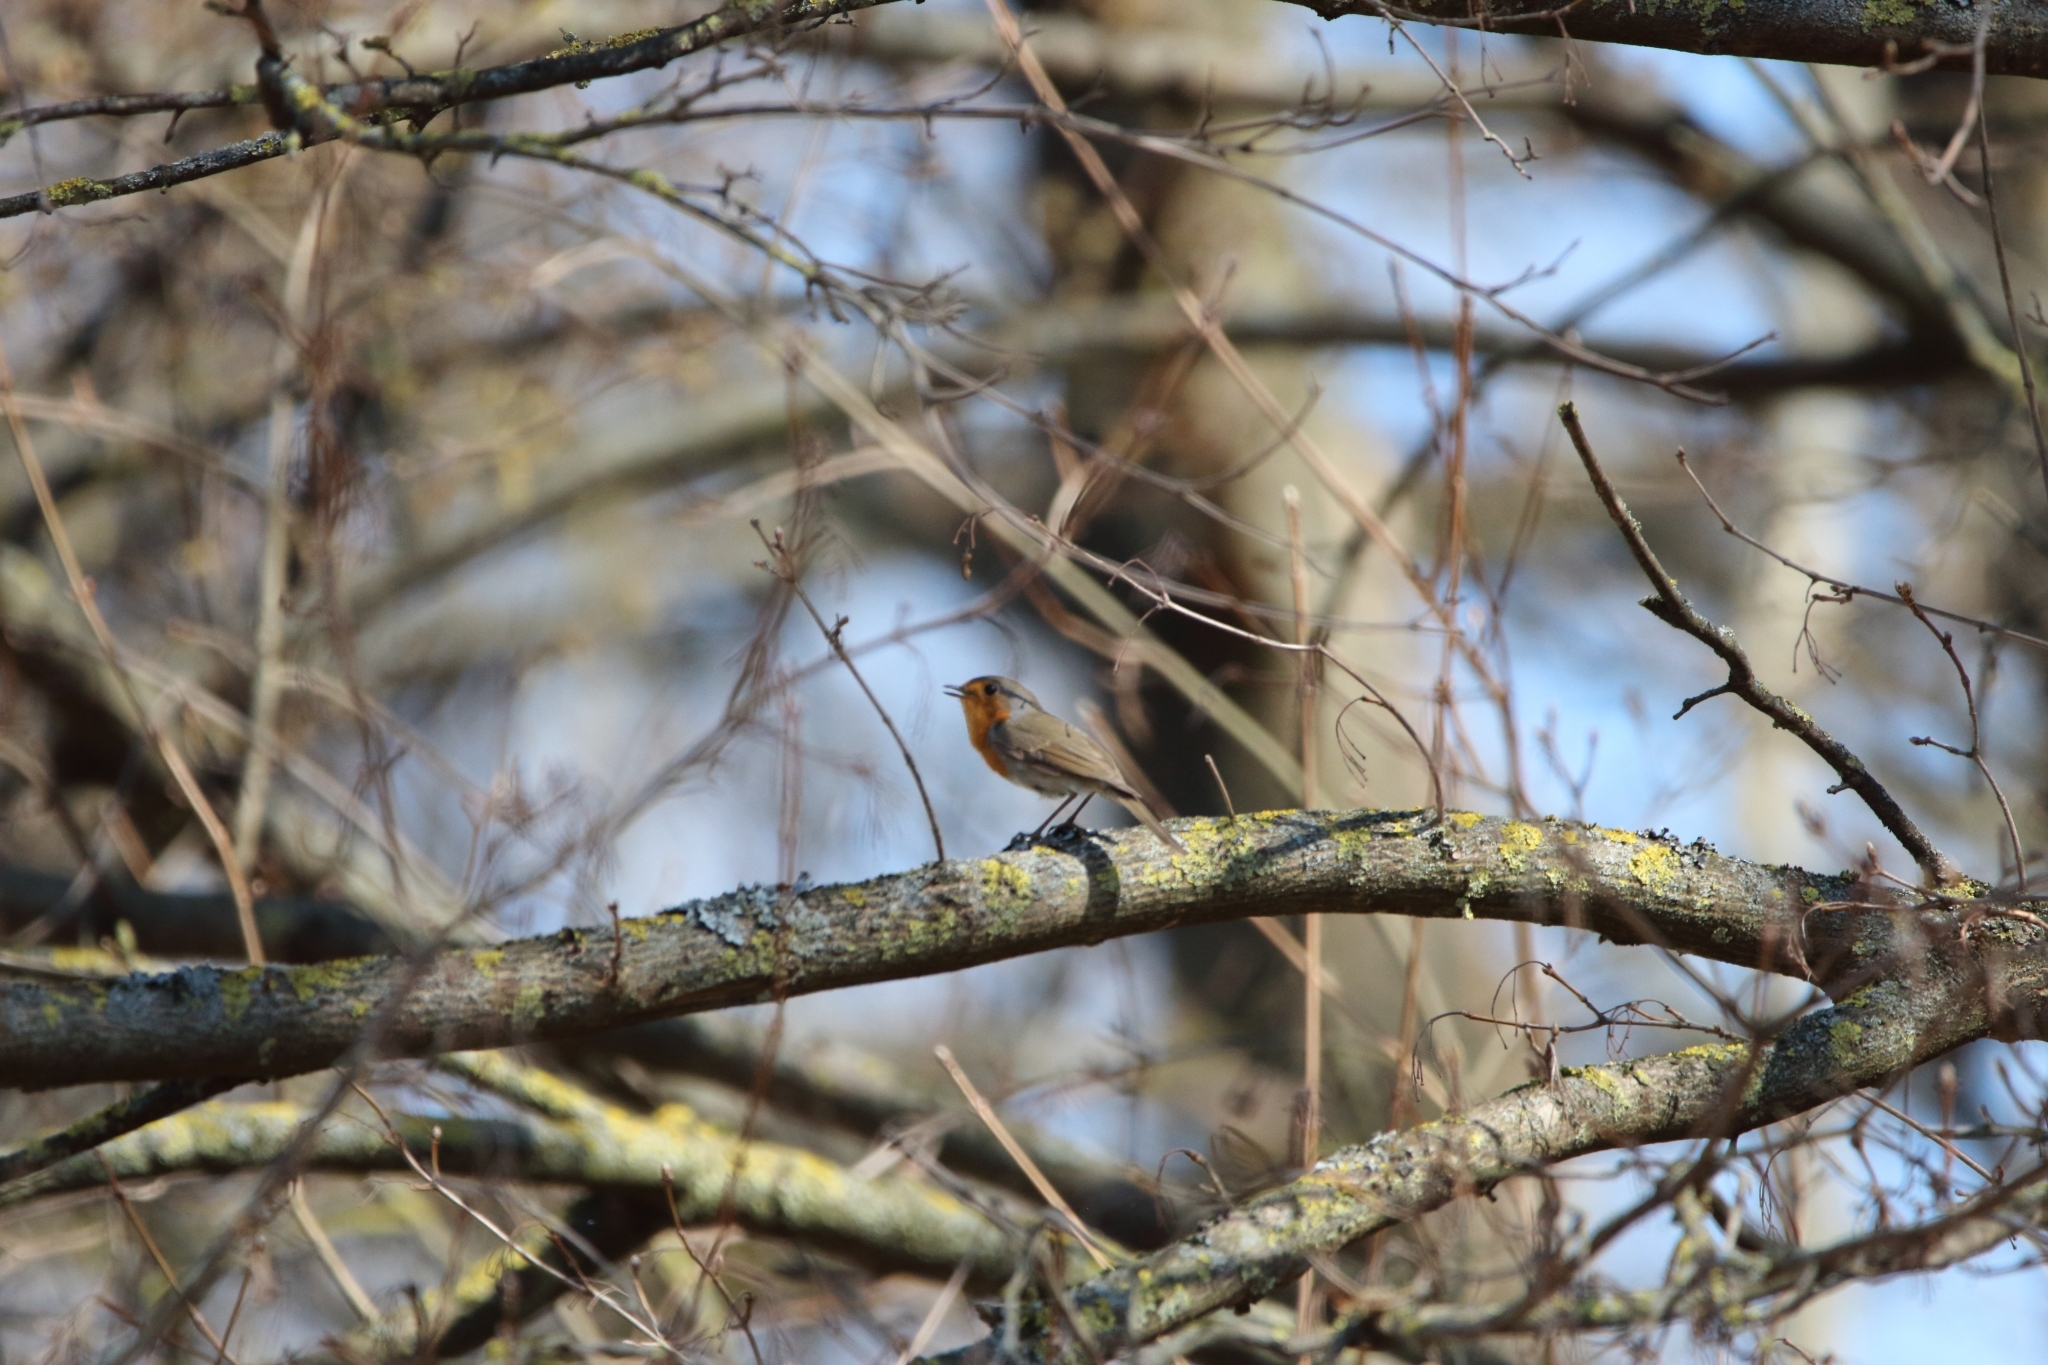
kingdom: Animalia
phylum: Chordata
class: Aves
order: Passeriformes
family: Muscicapidae
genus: Erithacus
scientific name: Erithacus rubecula
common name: European robin
